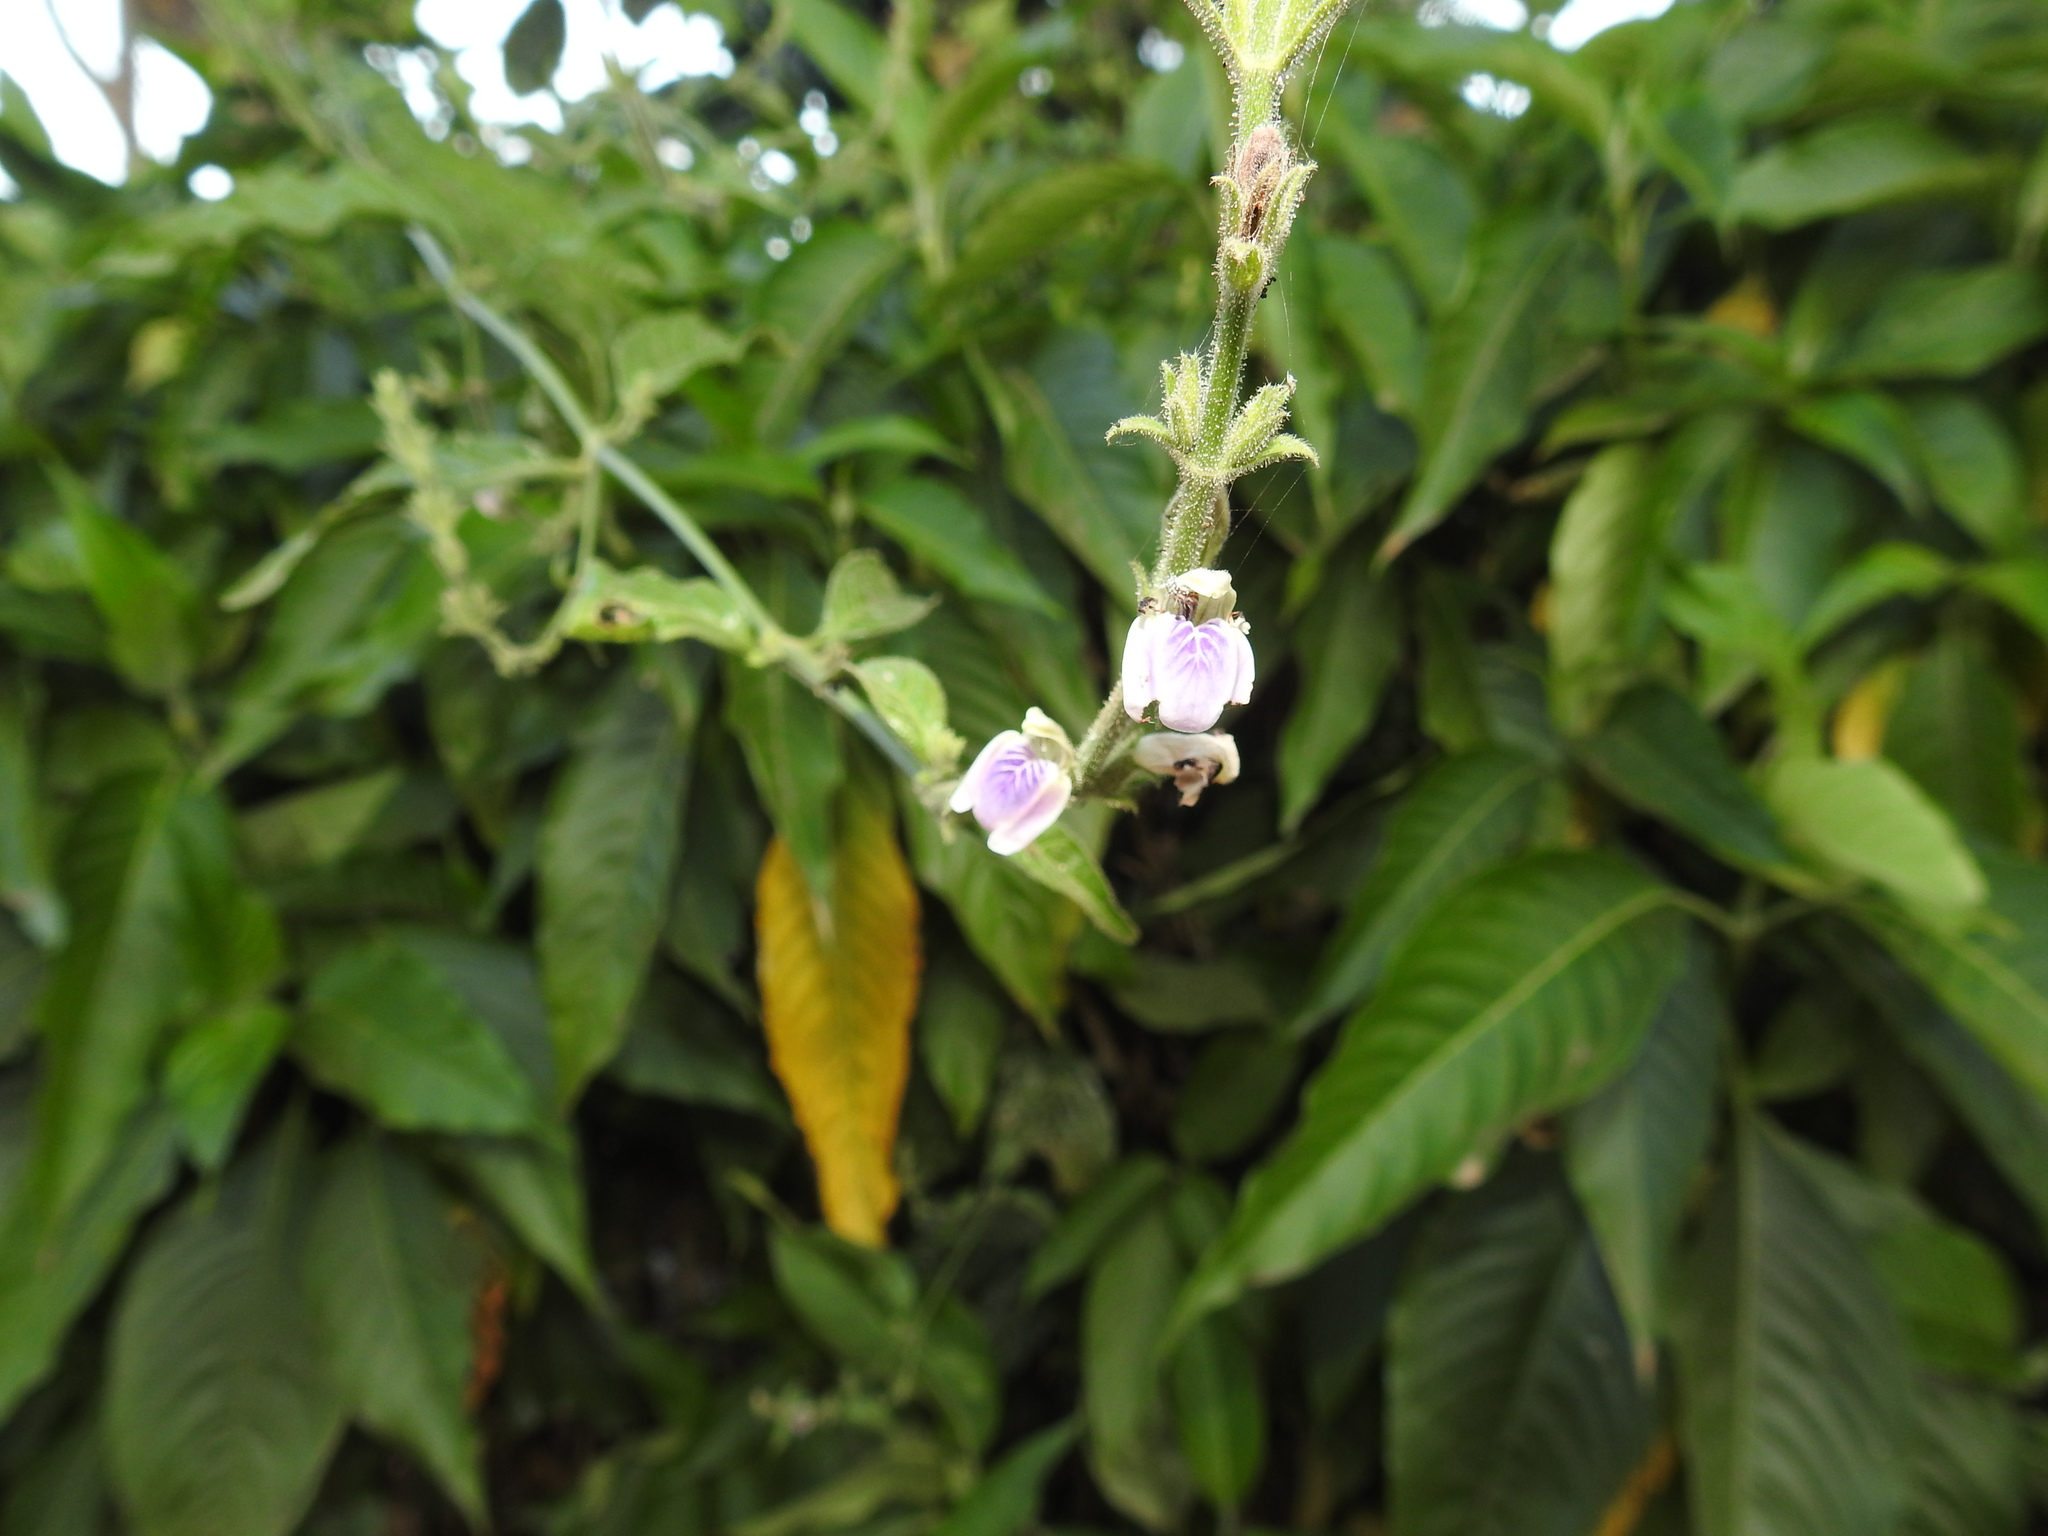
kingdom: Plantae
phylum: Tracheophyta
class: Magnoliopsida
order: Lamiales
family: Acanthaceae
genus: Justicia
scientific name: Justicia wynaadensis
